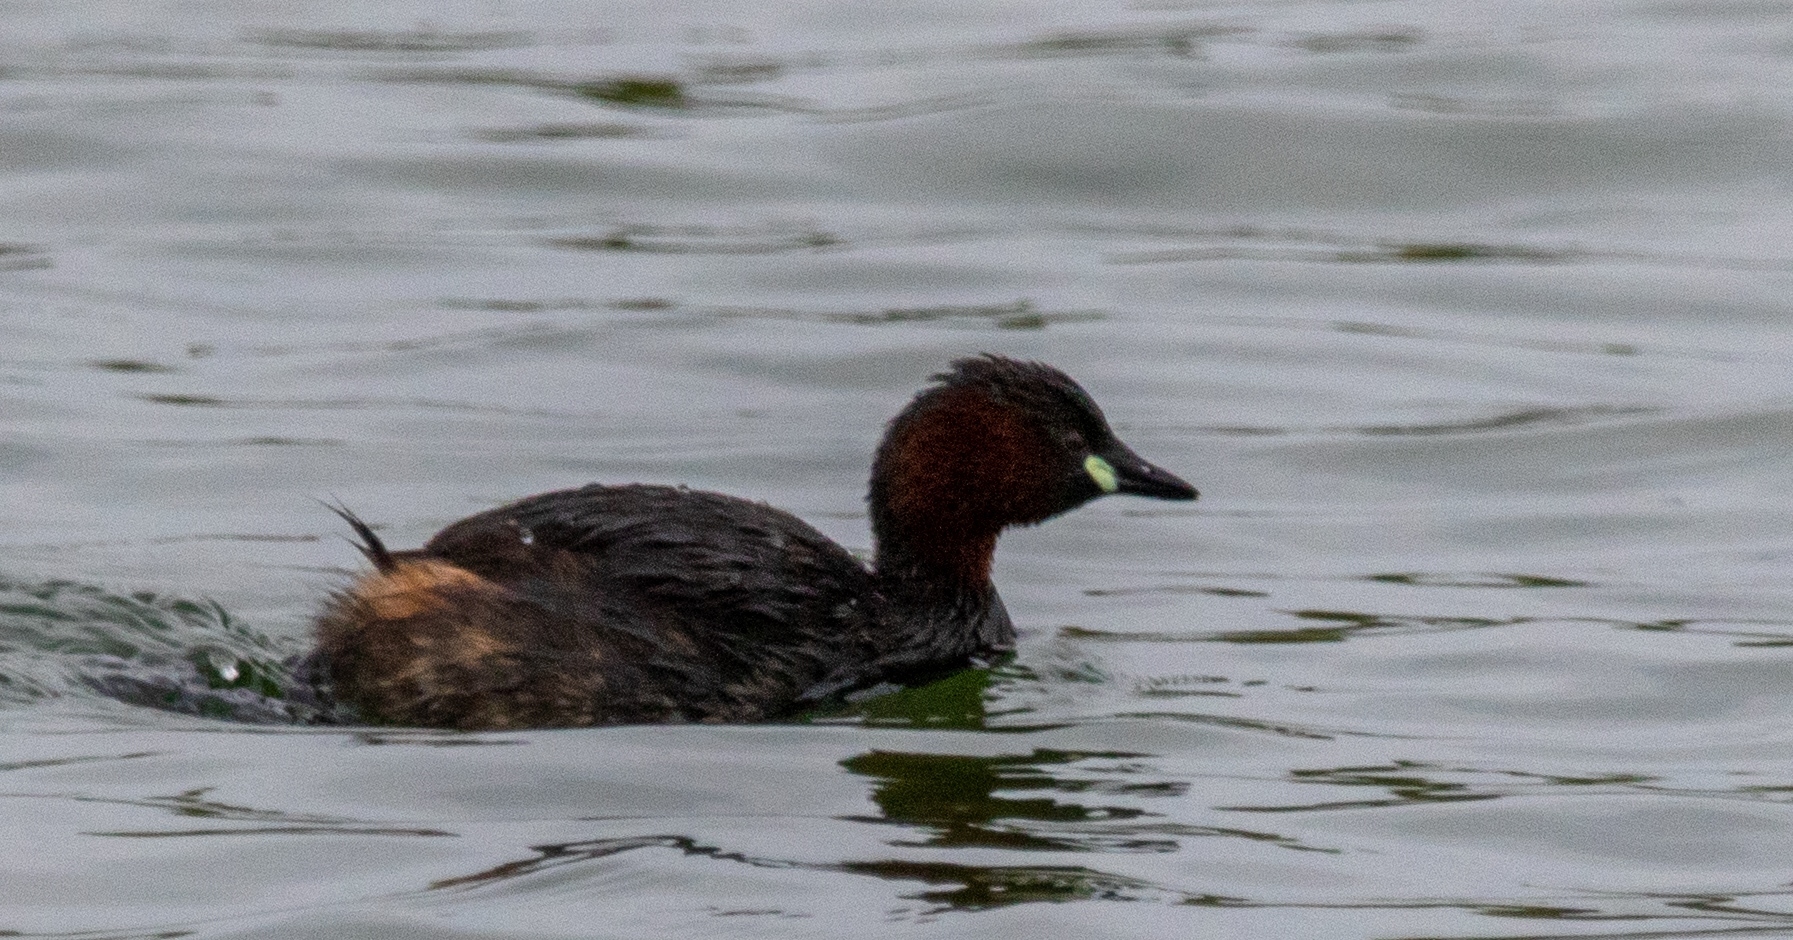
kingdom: Animalia
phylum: Chordata
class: Aves
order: Podicipediformes
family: Podicipedidae
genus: Tachybaptus
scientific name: Tachybaptus ruficollis
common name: Little grebe
